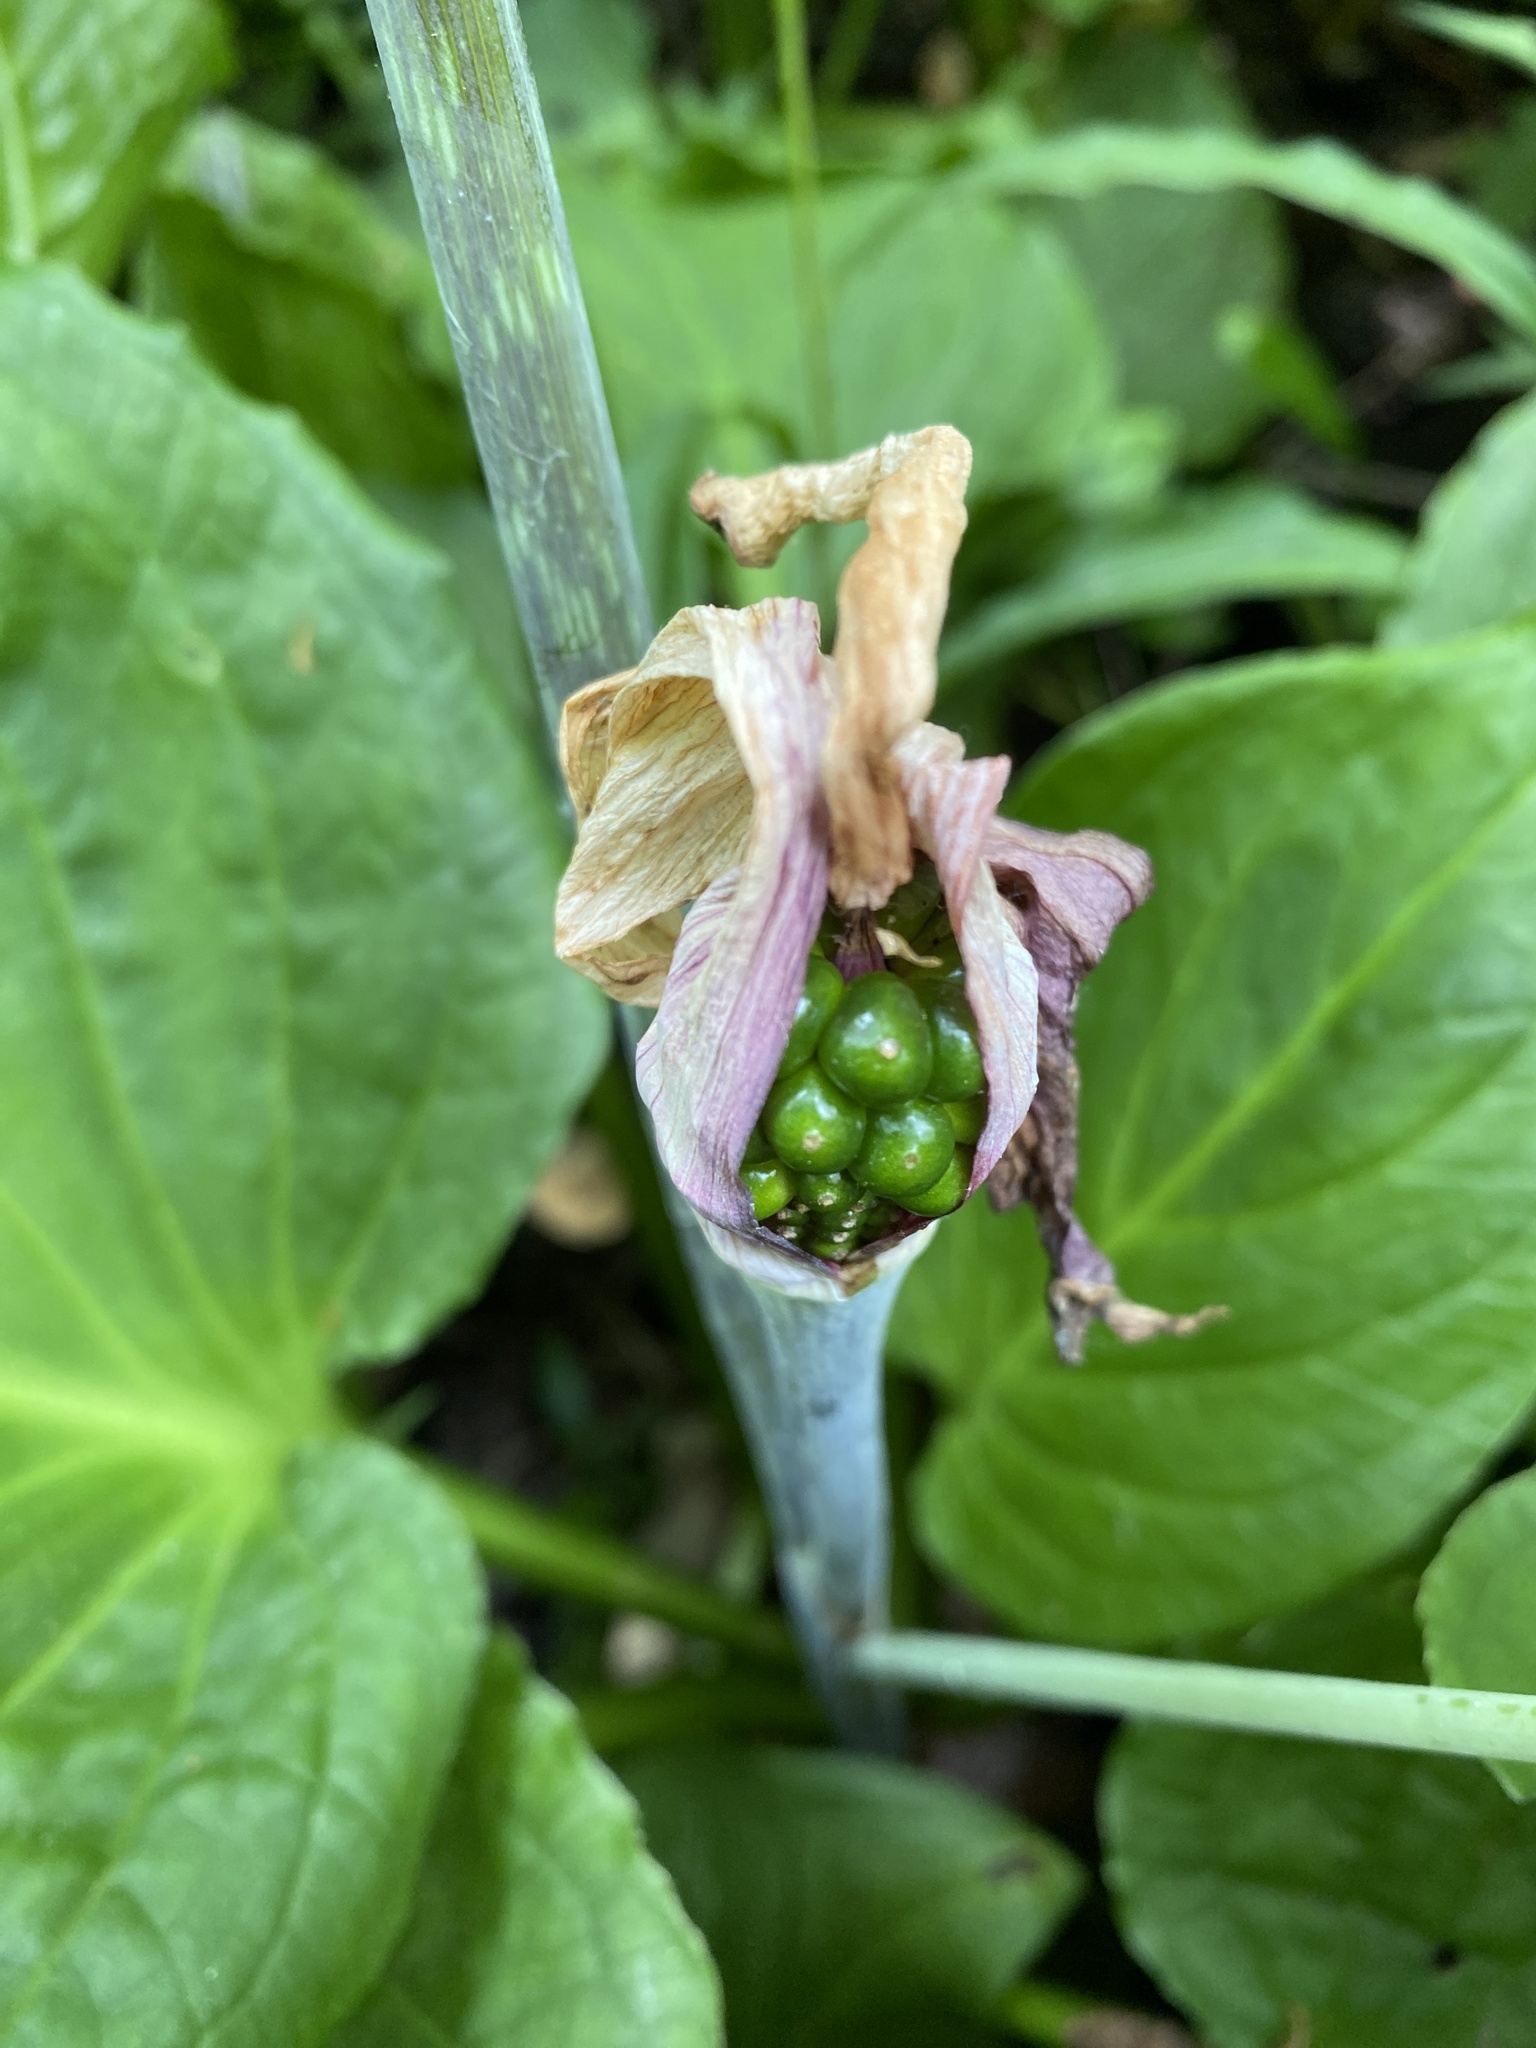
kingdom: Plantae
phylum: Tracheophyta
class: Liliopsida
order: Alismatales
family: Araceae
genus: Arisaema
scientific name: Arisaema triphyllum
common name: Jack-in-the-pulpit
